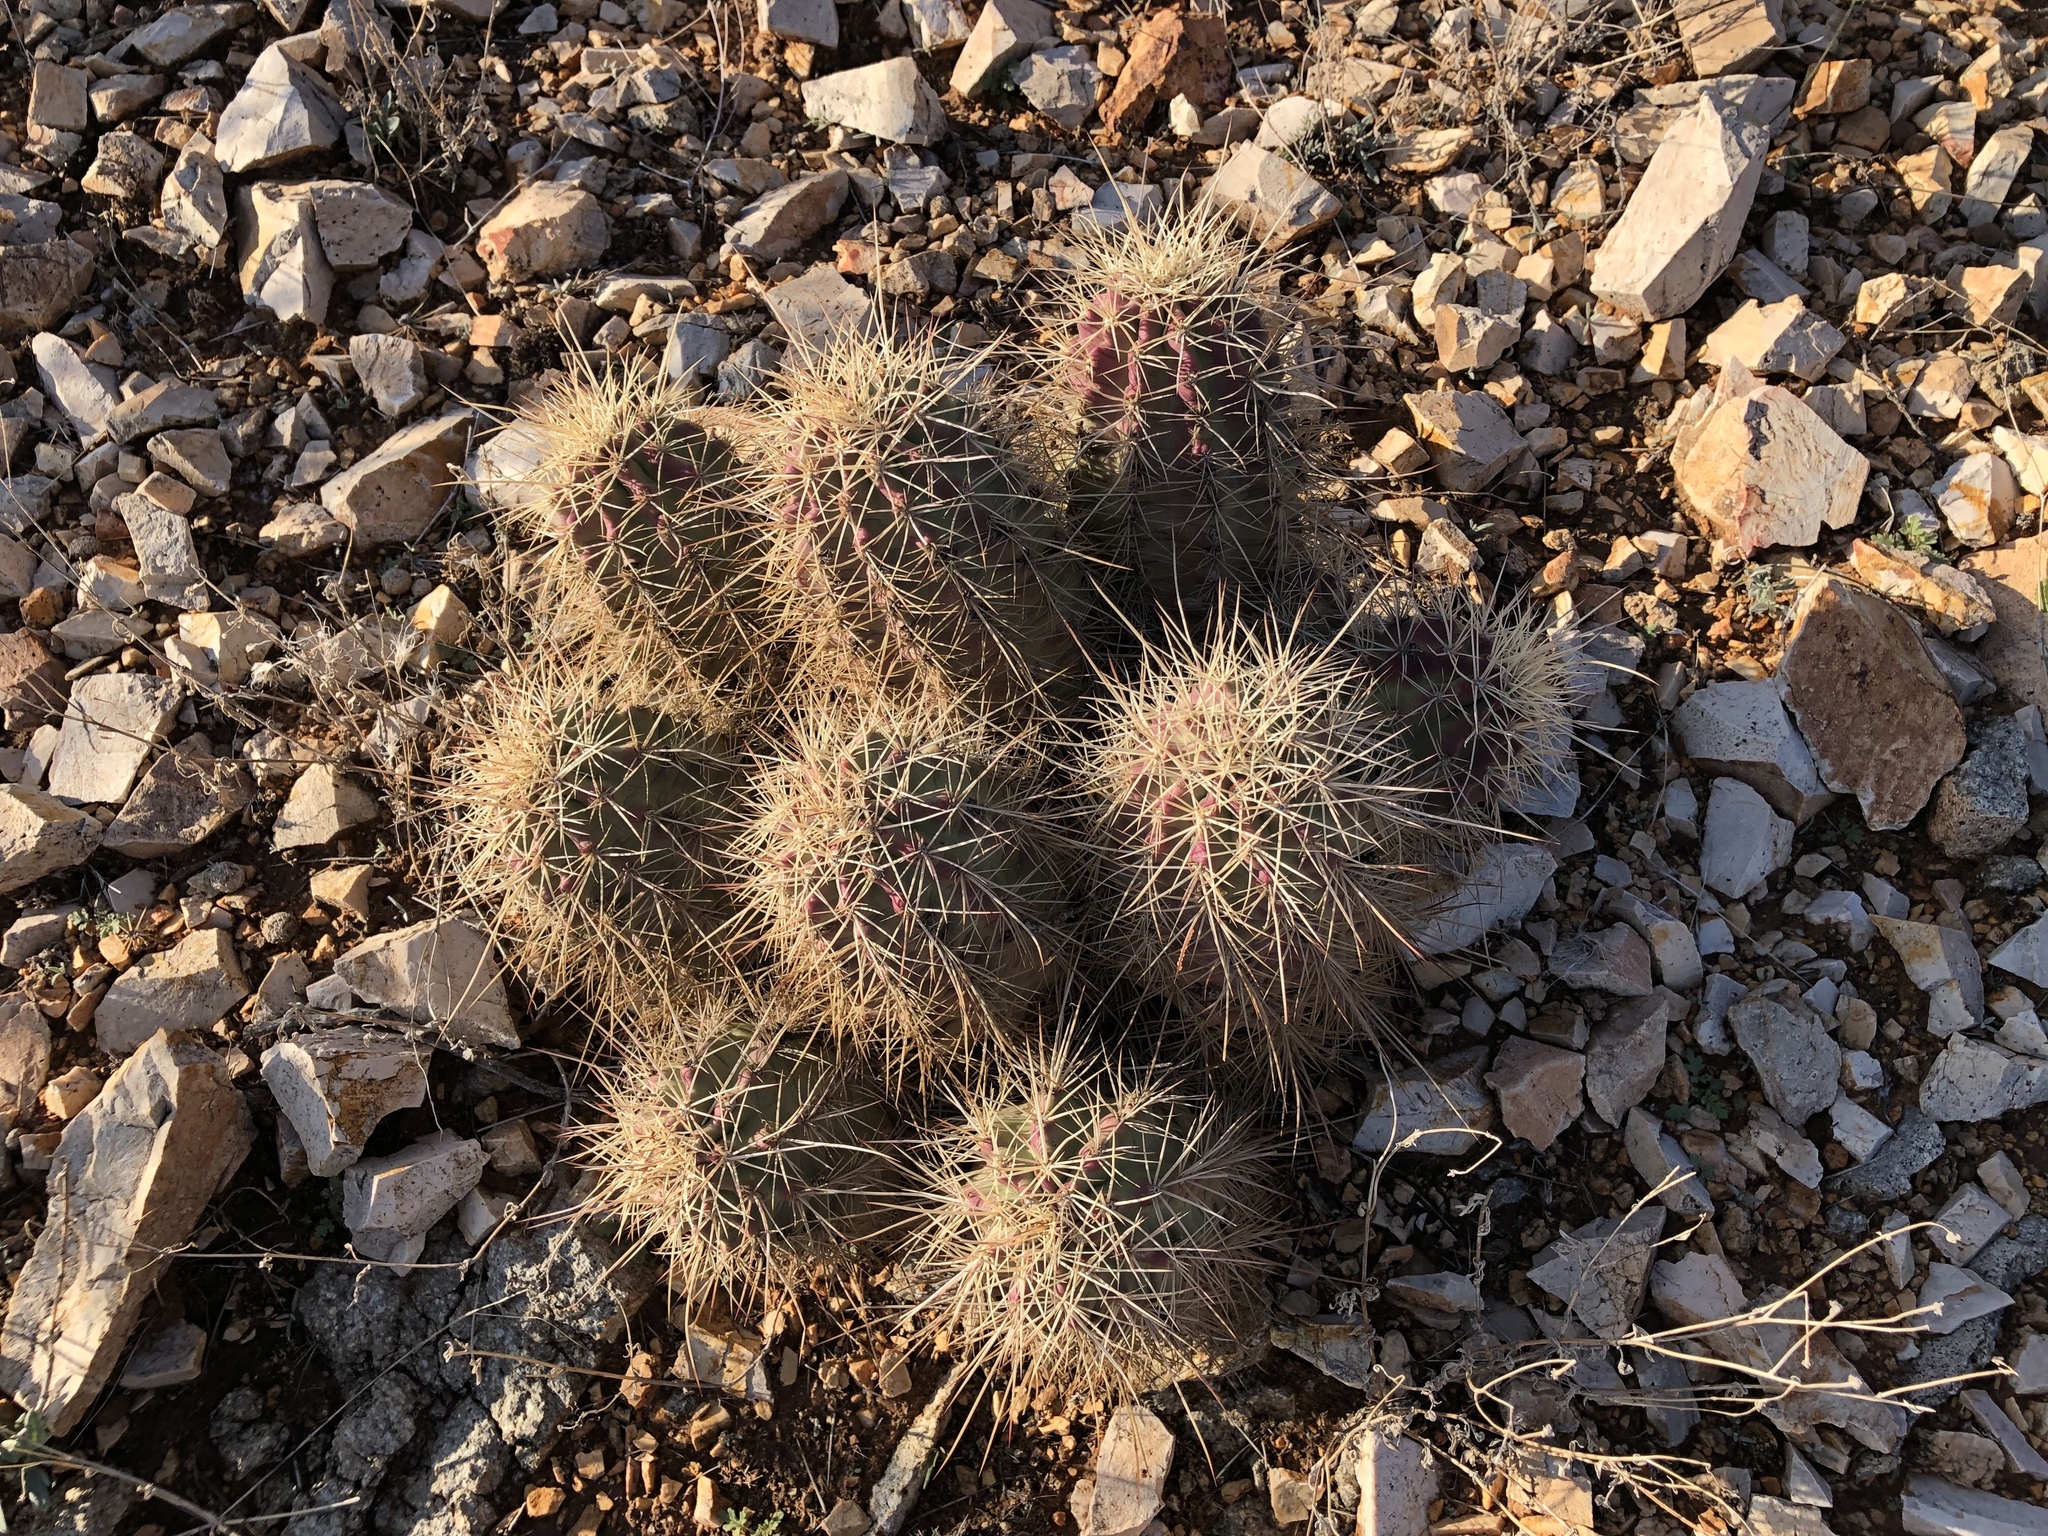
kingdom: Plantae
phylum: Tracheophyta
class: Magnoliopsida
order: Caryophyllales
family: Cactaceae
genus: Echinocereus
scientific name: Echinocereus coccineus
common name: Scarlet hedgehog cactus
